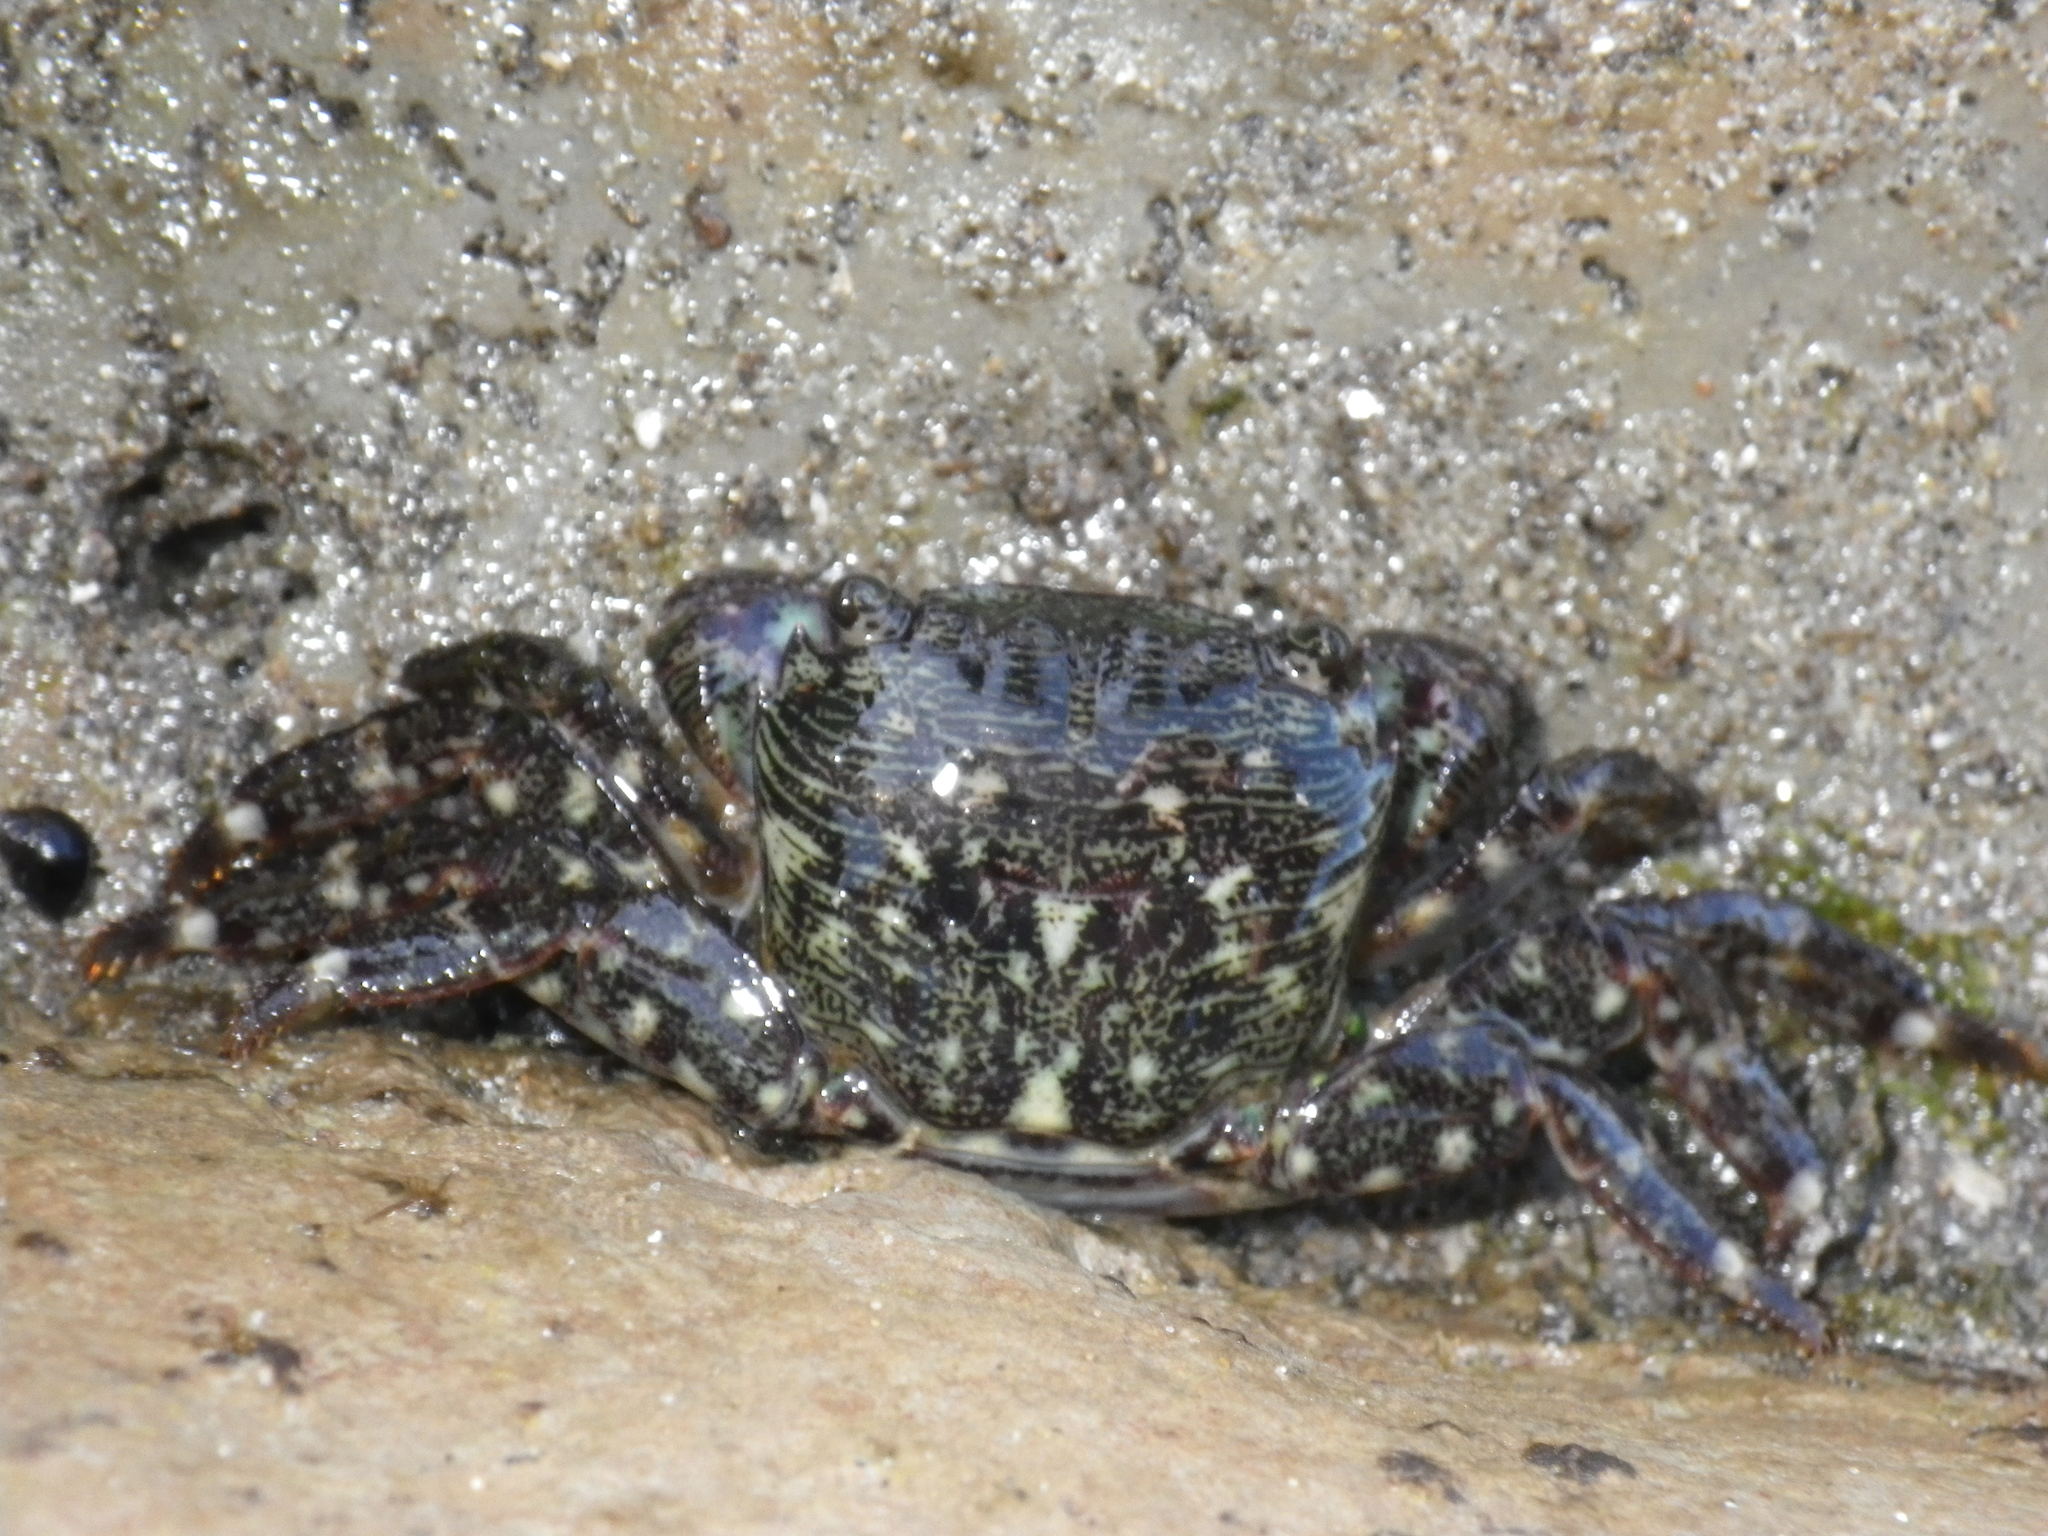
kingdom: Animalia
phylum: Arthropoda
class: Malacostraca
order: Decapoda
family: Grapsidae
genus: Pachygrapsus
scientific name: Pachygrapsus crassipes
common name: Striped shore crab
